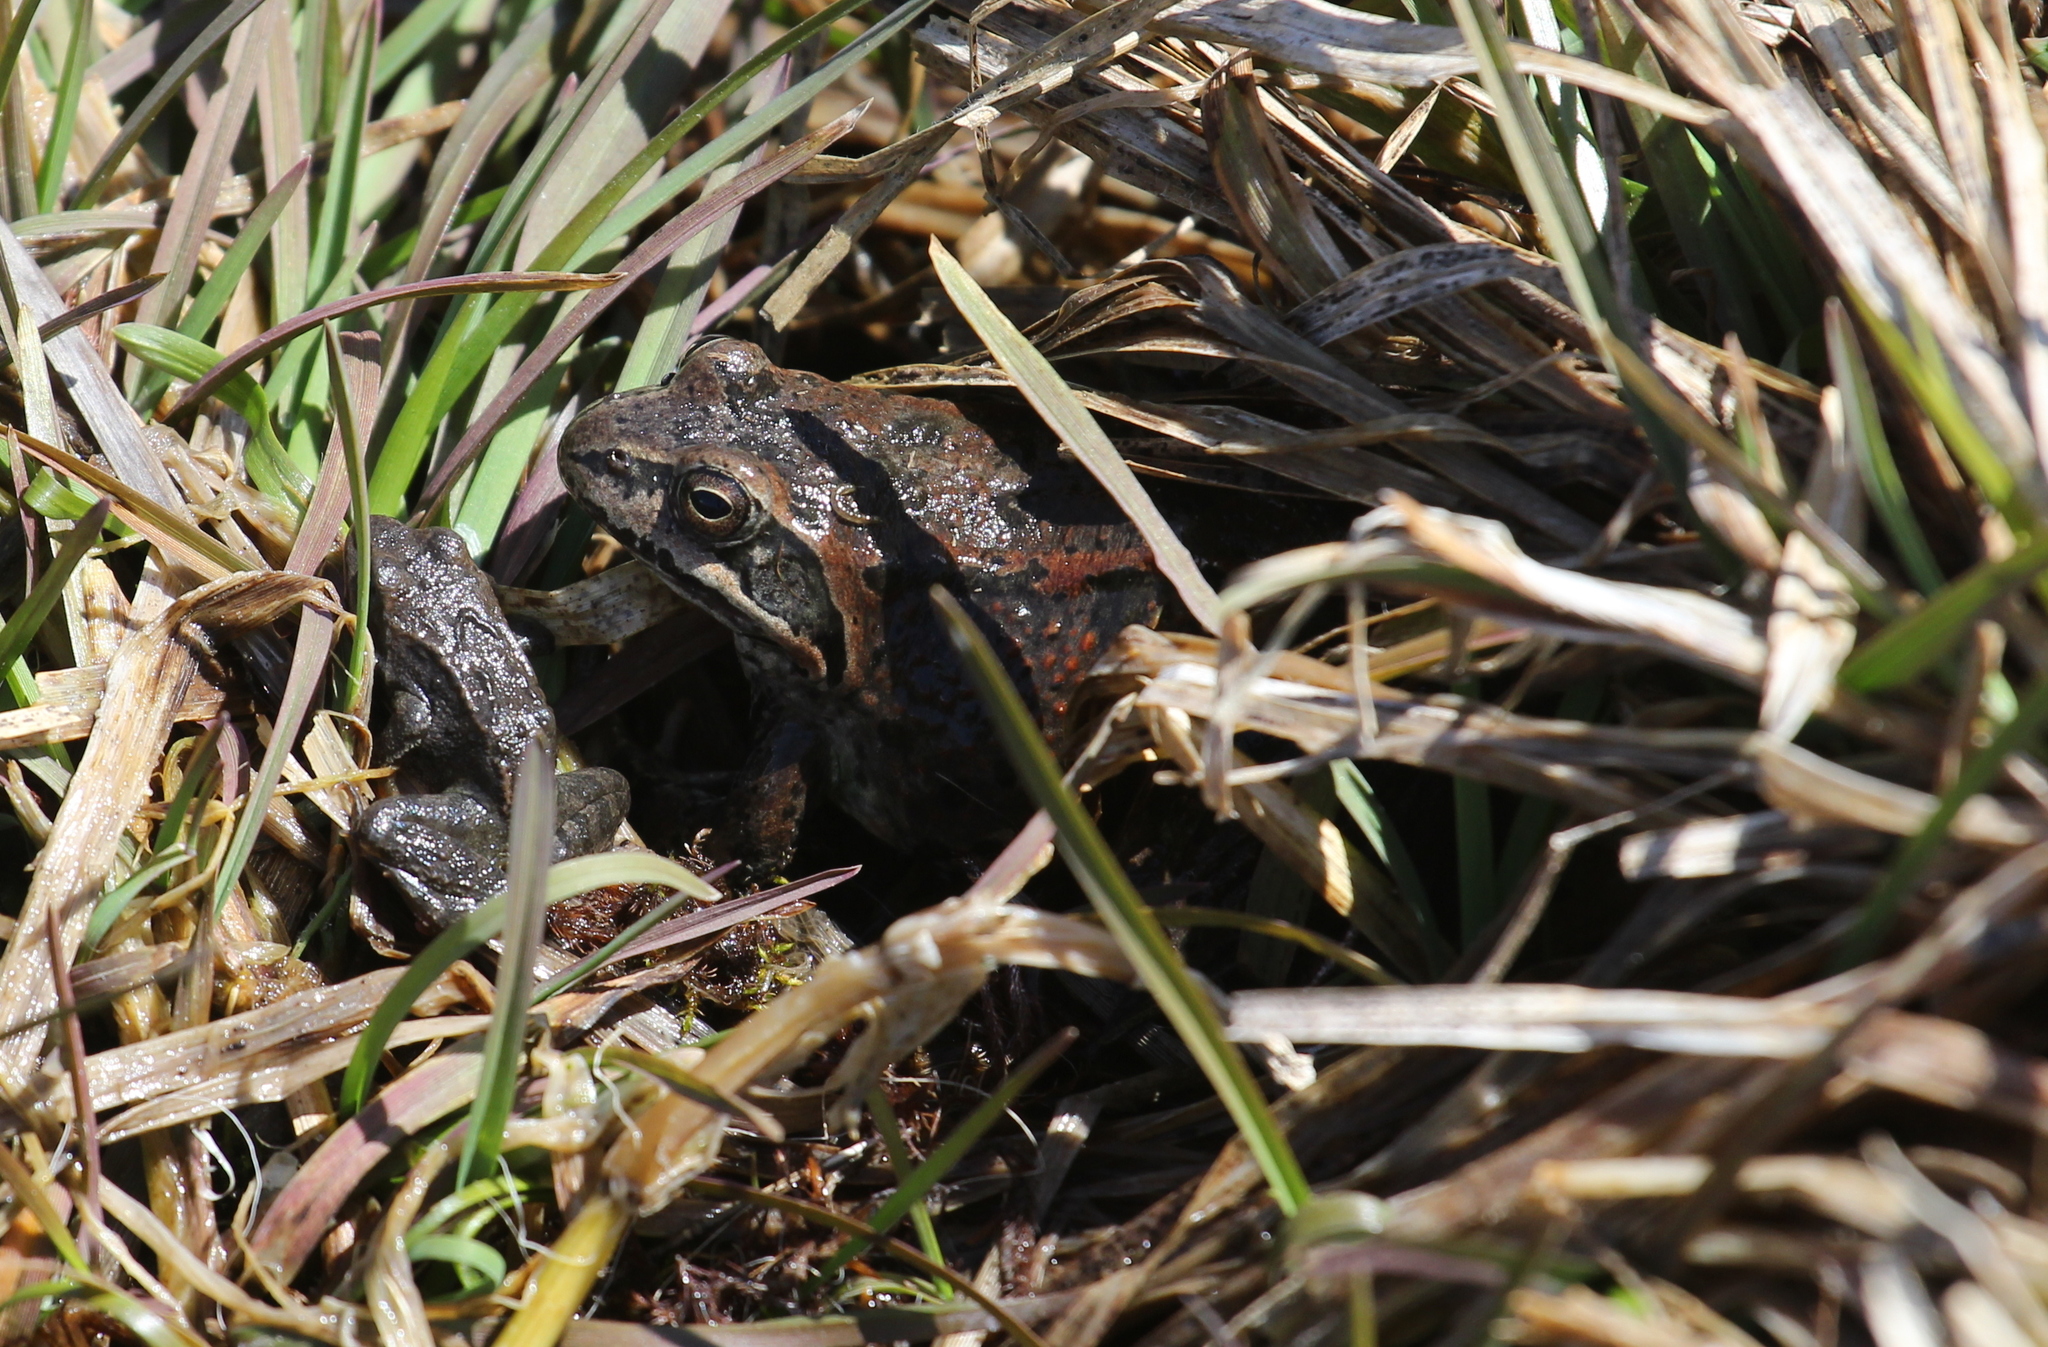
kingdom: Animalia
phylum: Chordata
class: Amphibia
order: Anura
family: Ranidae
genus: Rana
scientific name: Rana macrocnemis
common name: Banded frog
